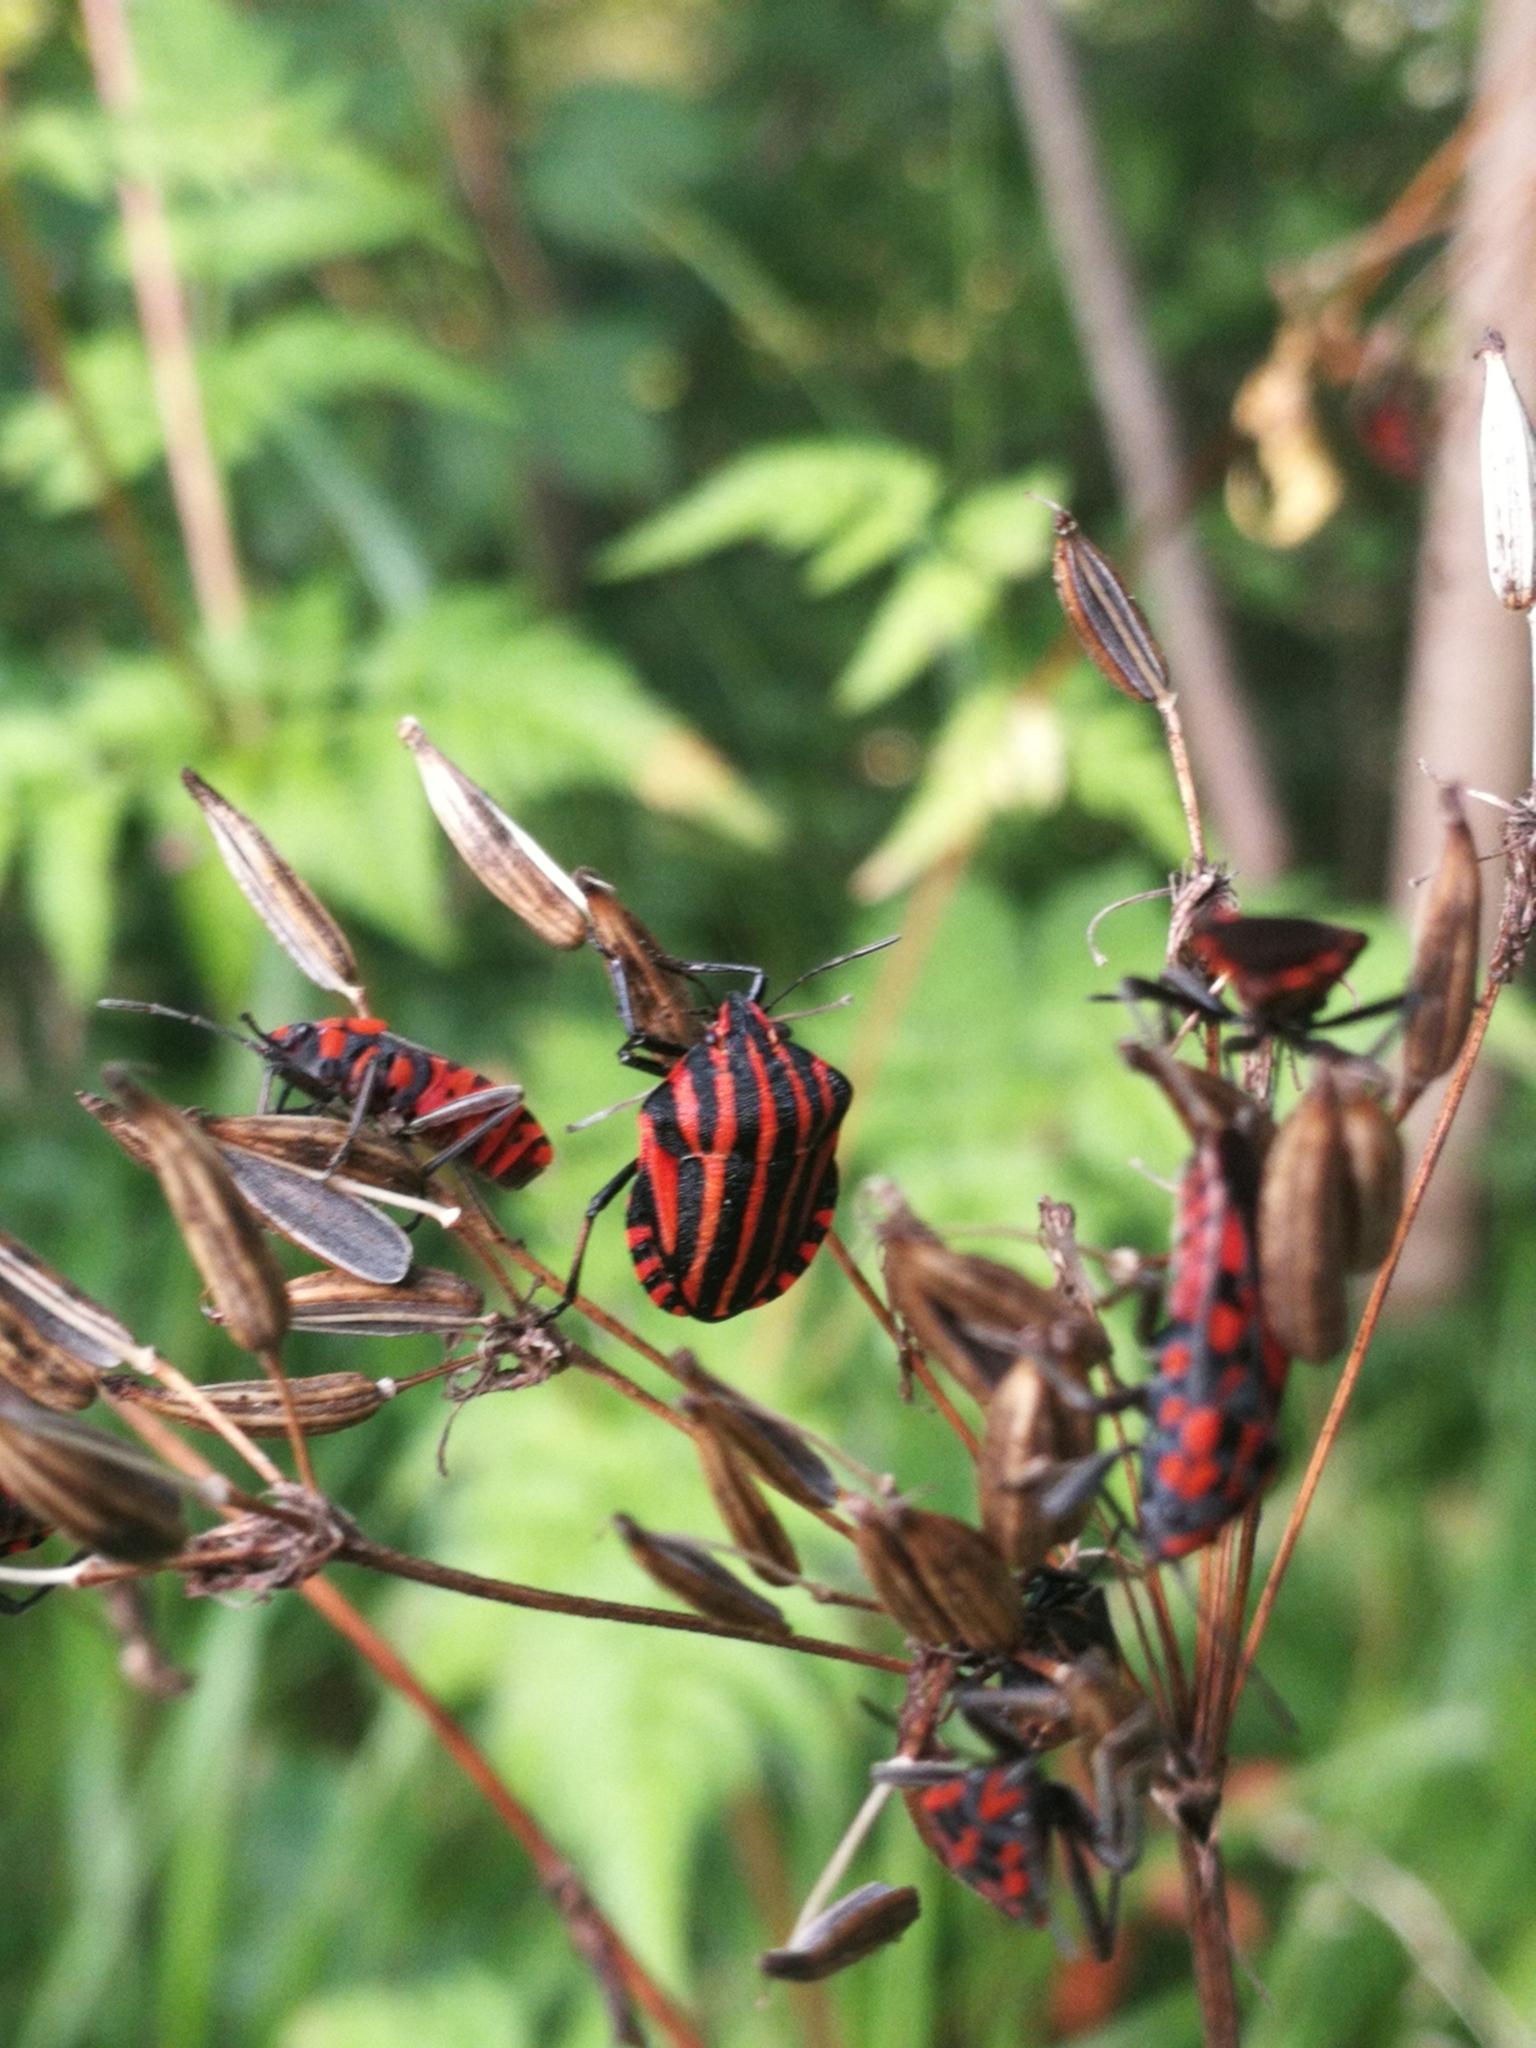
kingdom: Animalia
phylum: Arthropoda
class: Insecta
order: Hemiptera
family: Pentatomidae
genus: Graphosoma
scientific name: Graphosoma italicum
